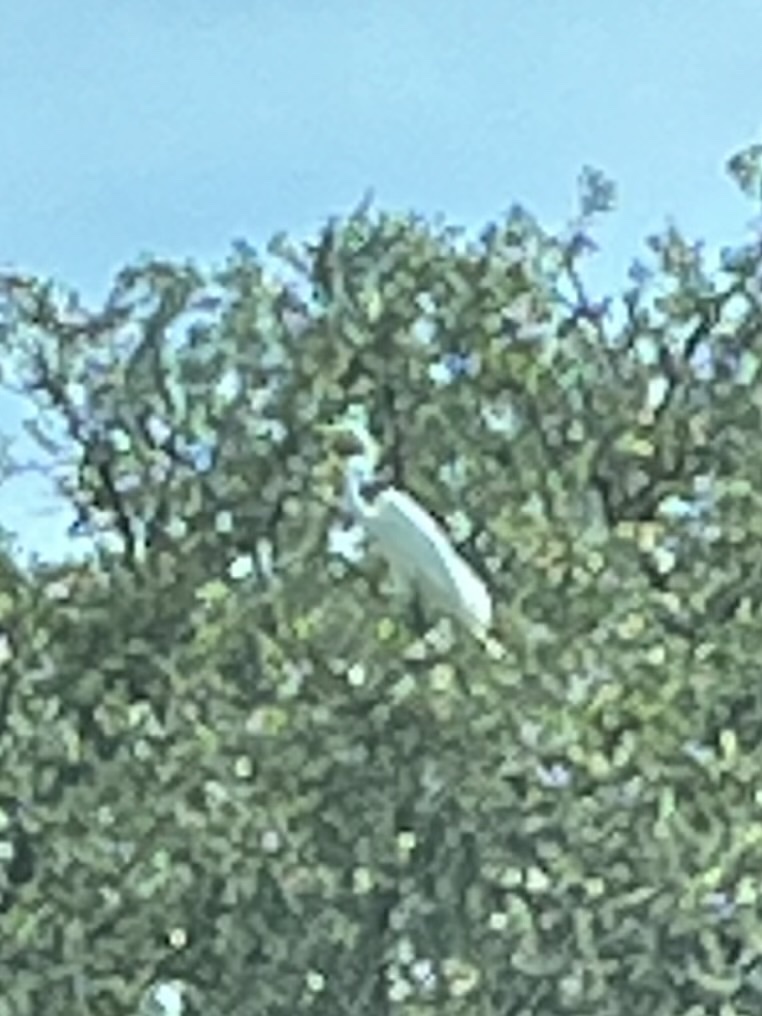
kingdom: Animalia
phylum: Chordata
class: Aves
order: Pelecaniformes
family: Ardeidae
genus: Ardea
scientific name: Ardea alba
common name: Great egret
